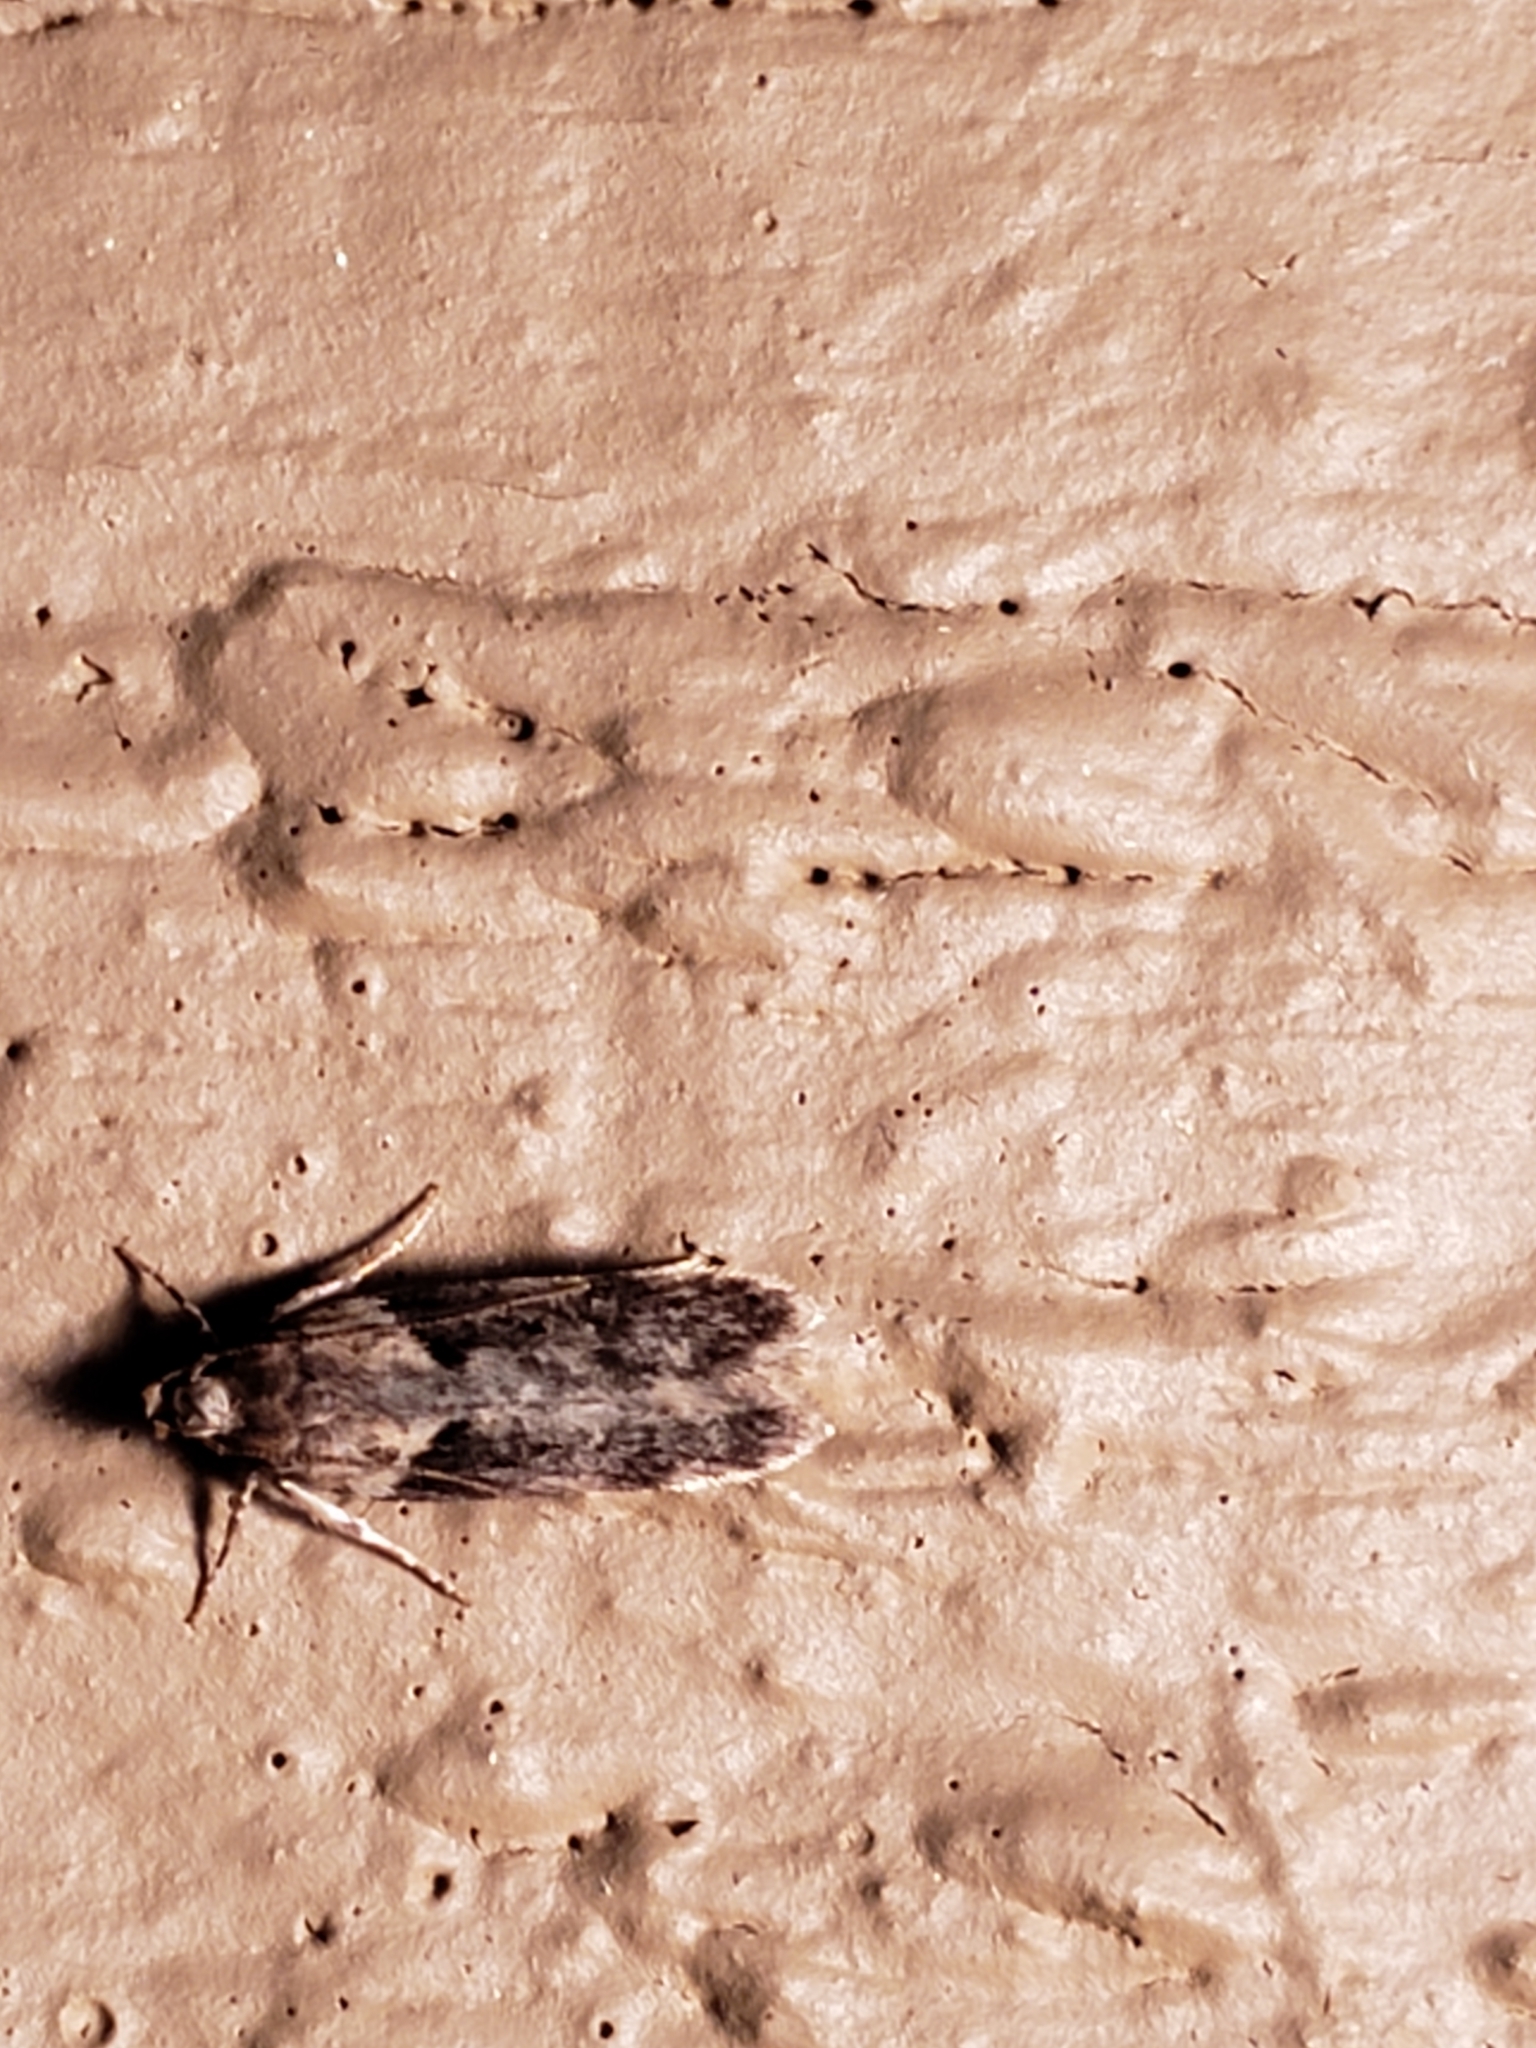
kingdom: Animalia
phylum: Arthropoda
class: Insecta
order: Lepidoptera
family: Gelechiidae
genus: Chionodes
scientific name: Chionodes mediofuscella
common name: Black-smudged chionodes moth
